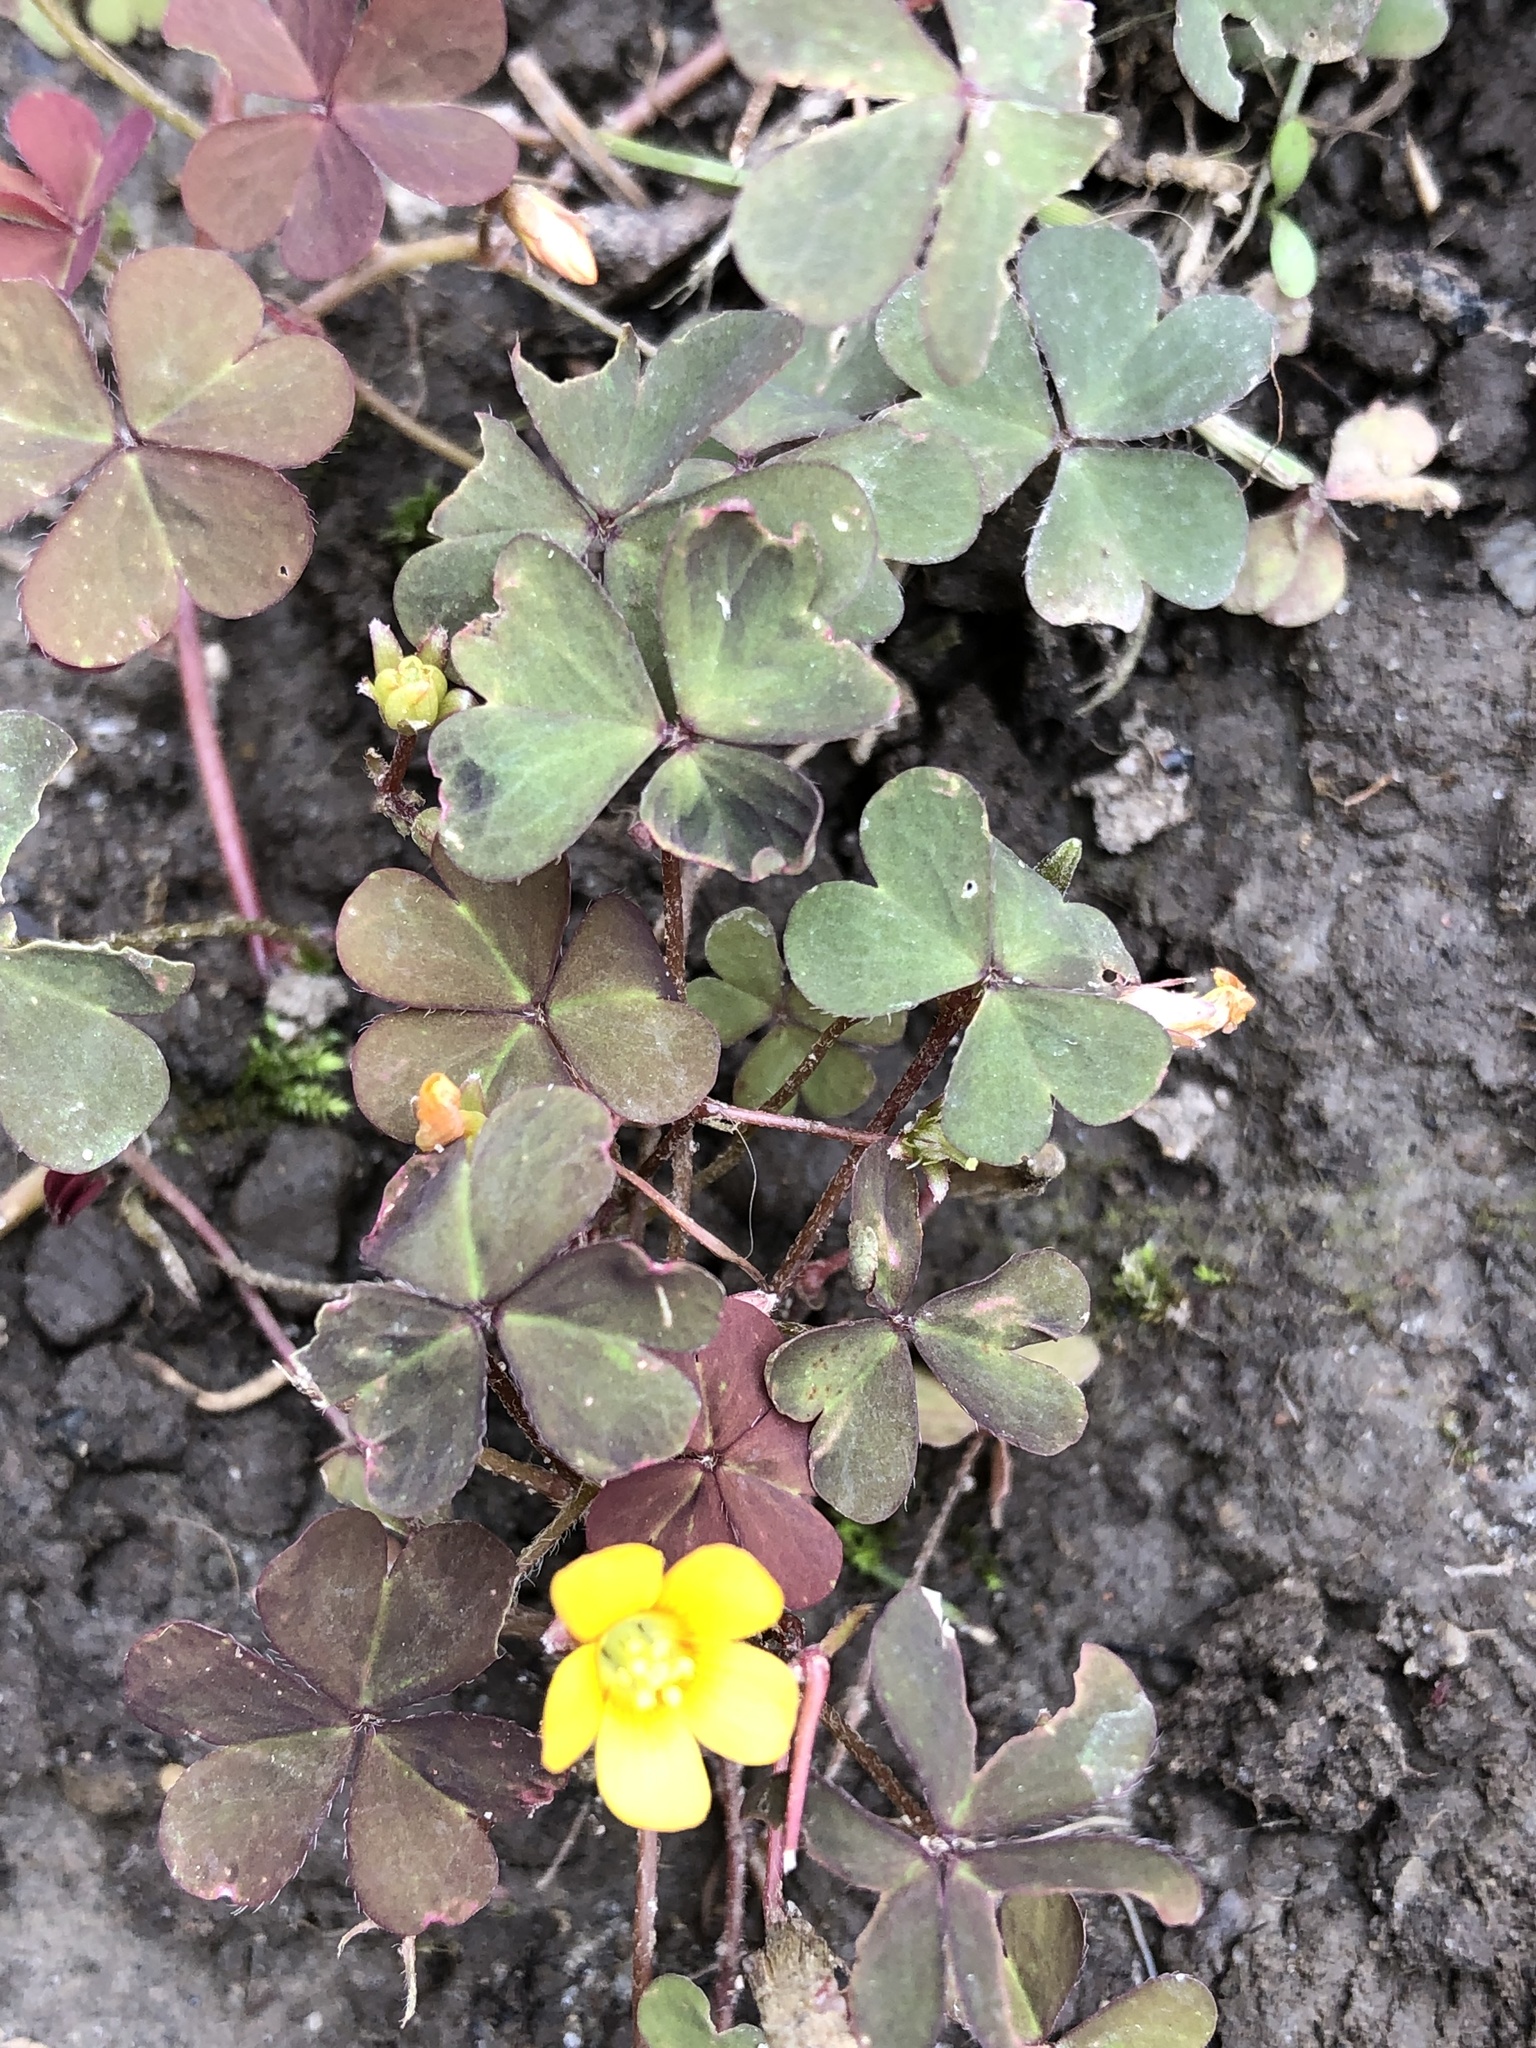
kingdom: Plantae
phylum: Tracheophyta
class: Magnoliopsida
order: Oxalidales
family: Oxalidaceae
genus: Oxalis
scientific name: Oxalis corniculata
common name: Procumbent yellow-sorrel
